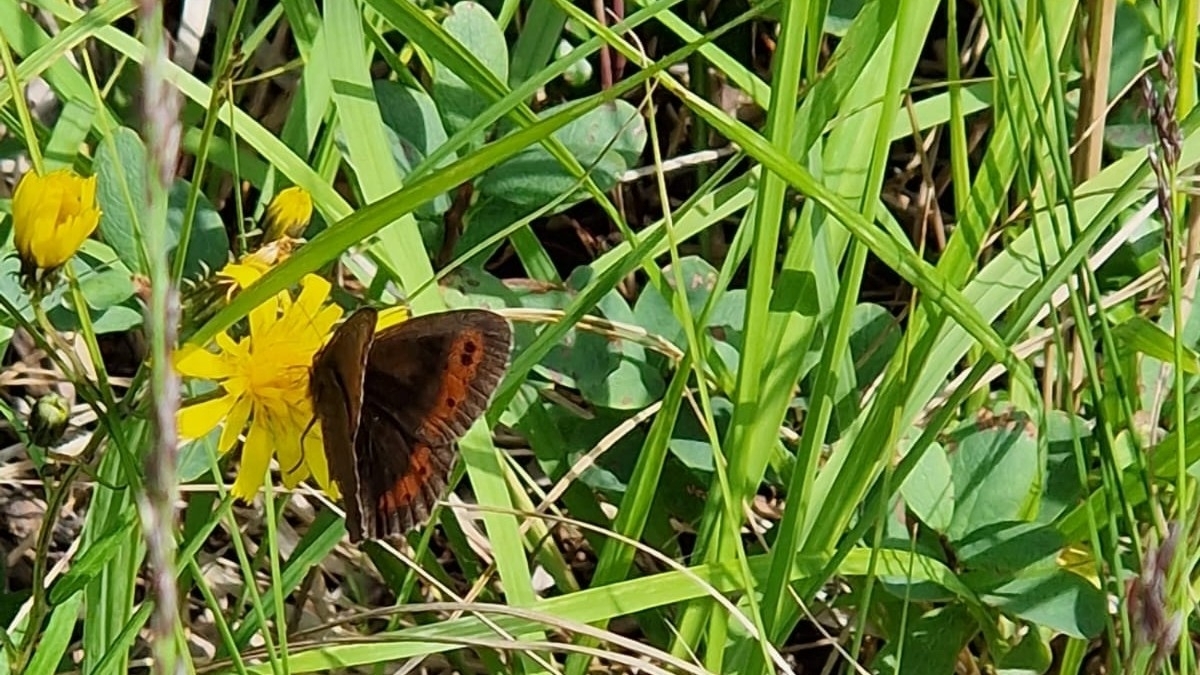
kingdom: Animalia
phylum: Arthropoda
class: Insecta
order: Lepidoptera
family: Nymphalidae
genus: Erebia
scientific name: Erebia ligea
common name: Arran brown
